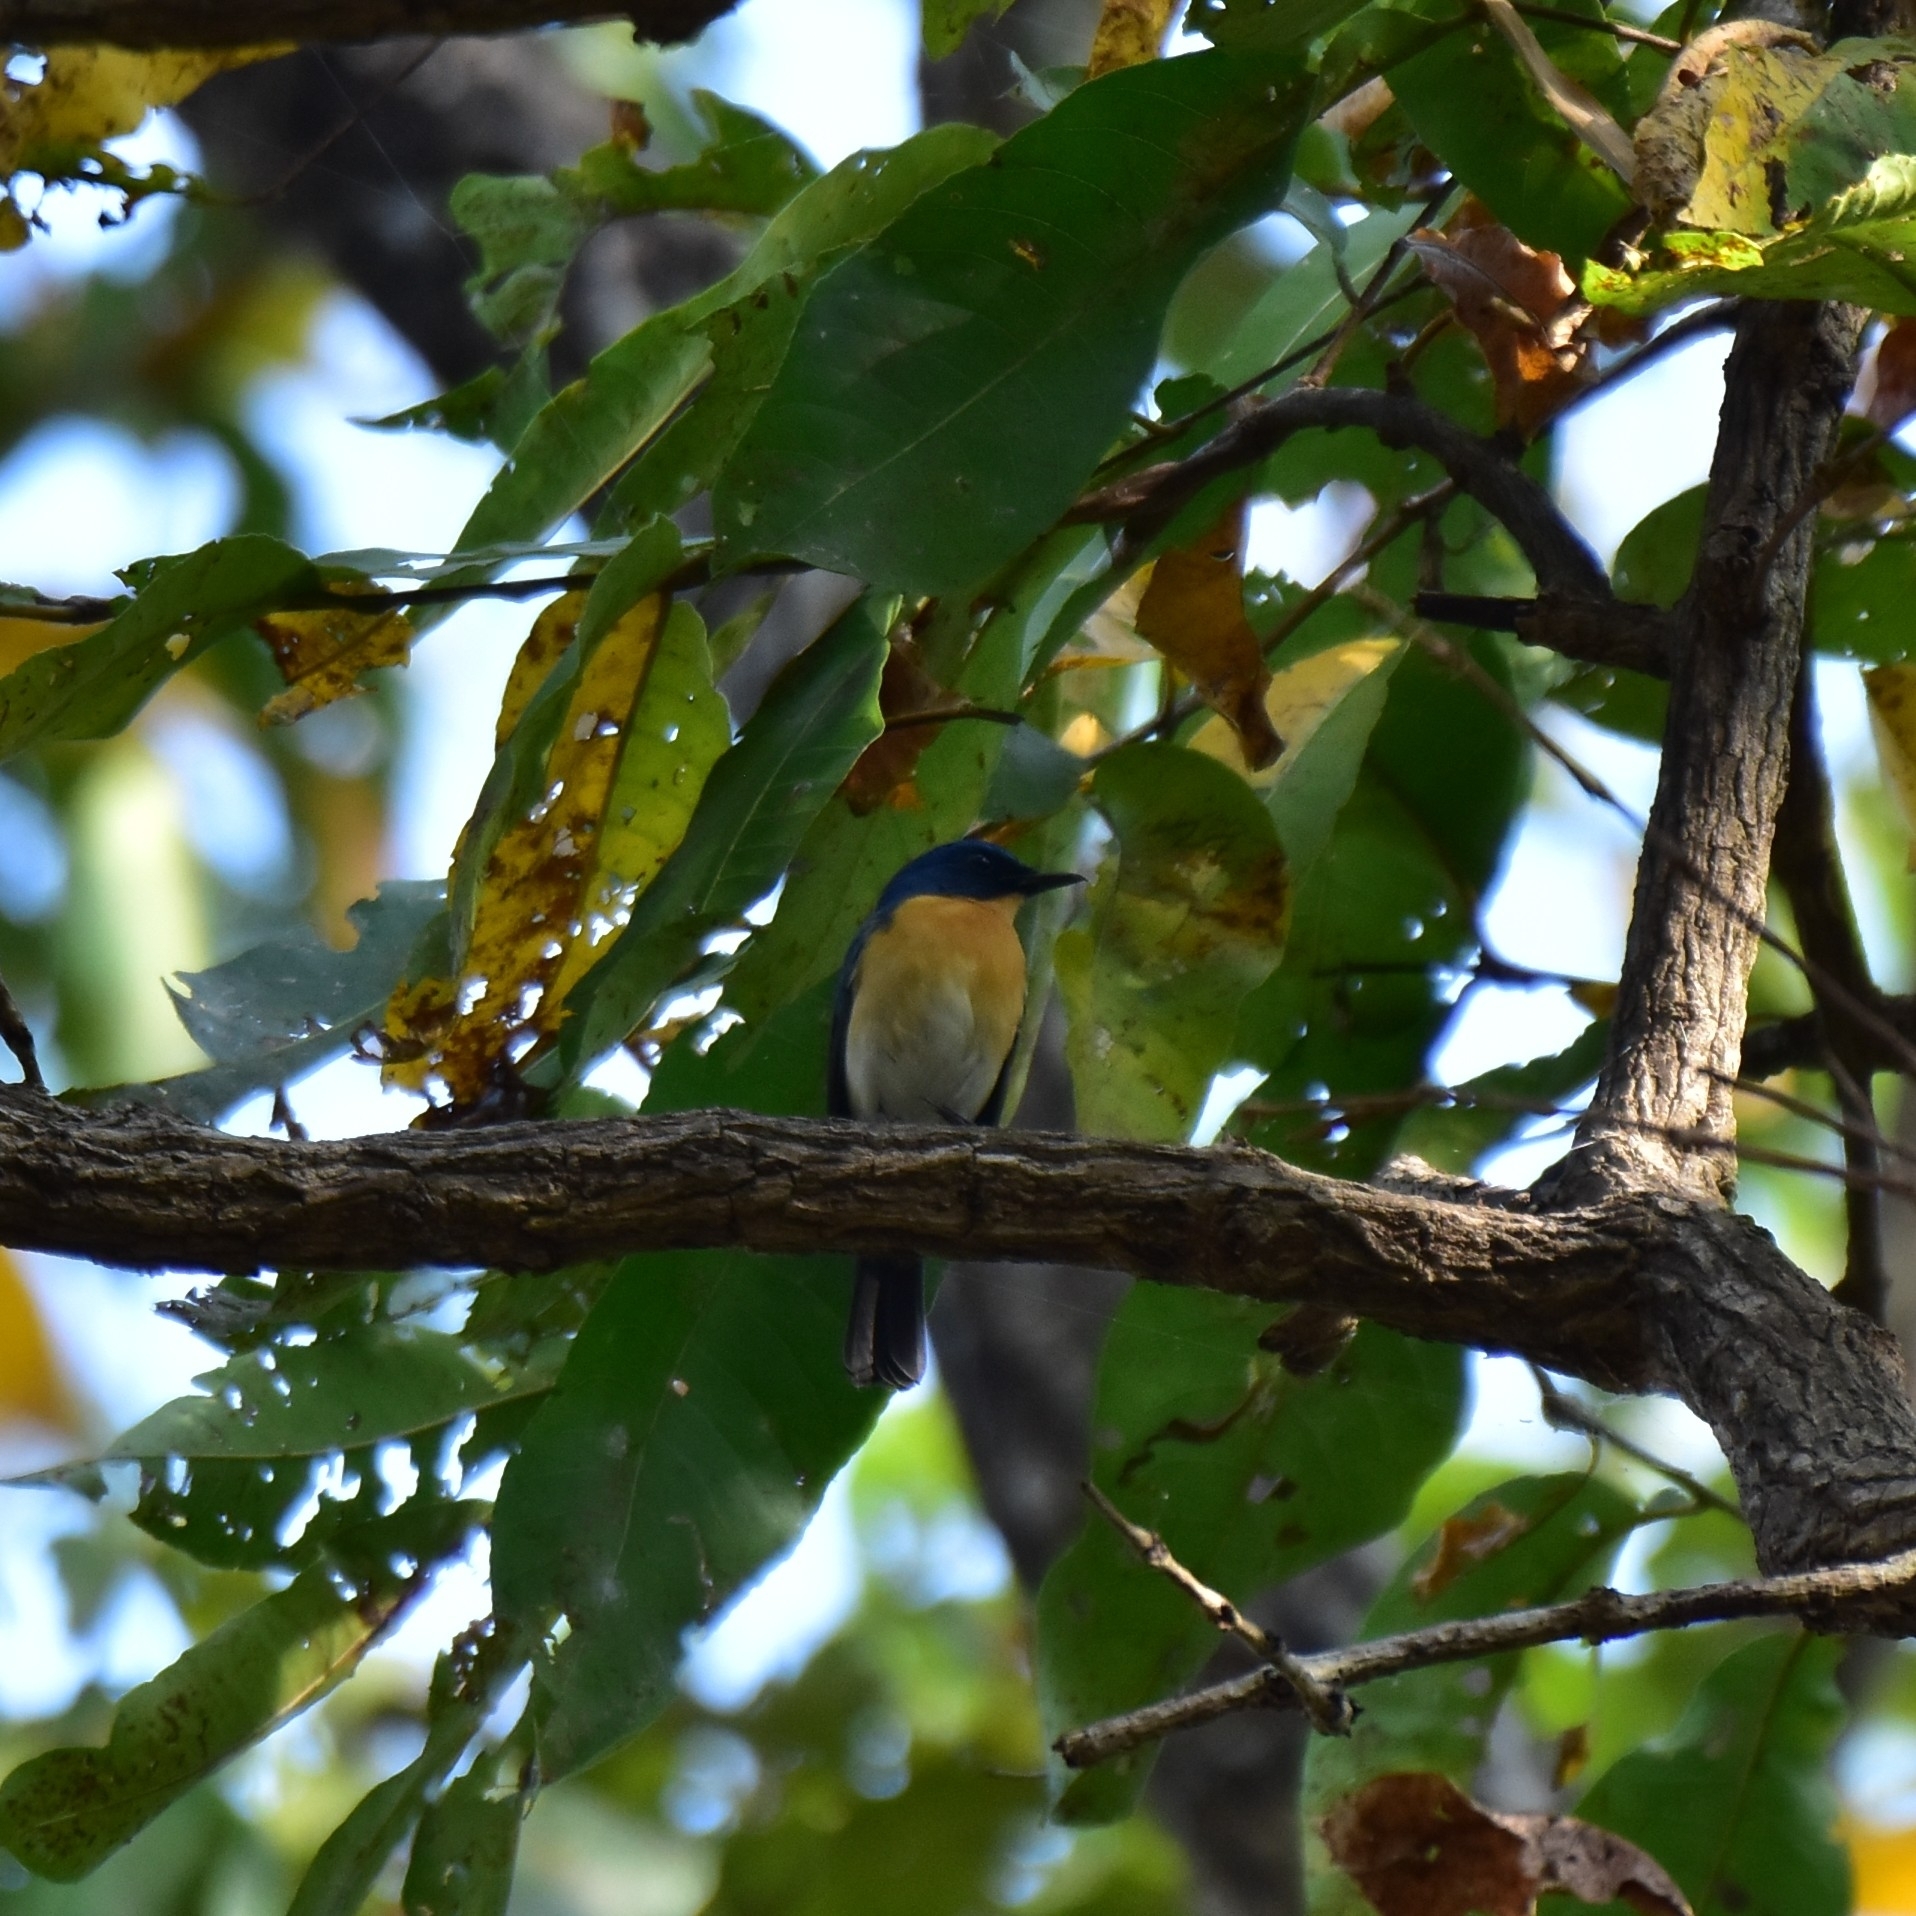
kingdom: Animalia
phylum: Chordata
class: Aves
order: Passeriformes
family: Muscicapidae
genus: Cyornis
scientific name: Cyornis tickelliae
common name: Tickell's blue flycatcher
